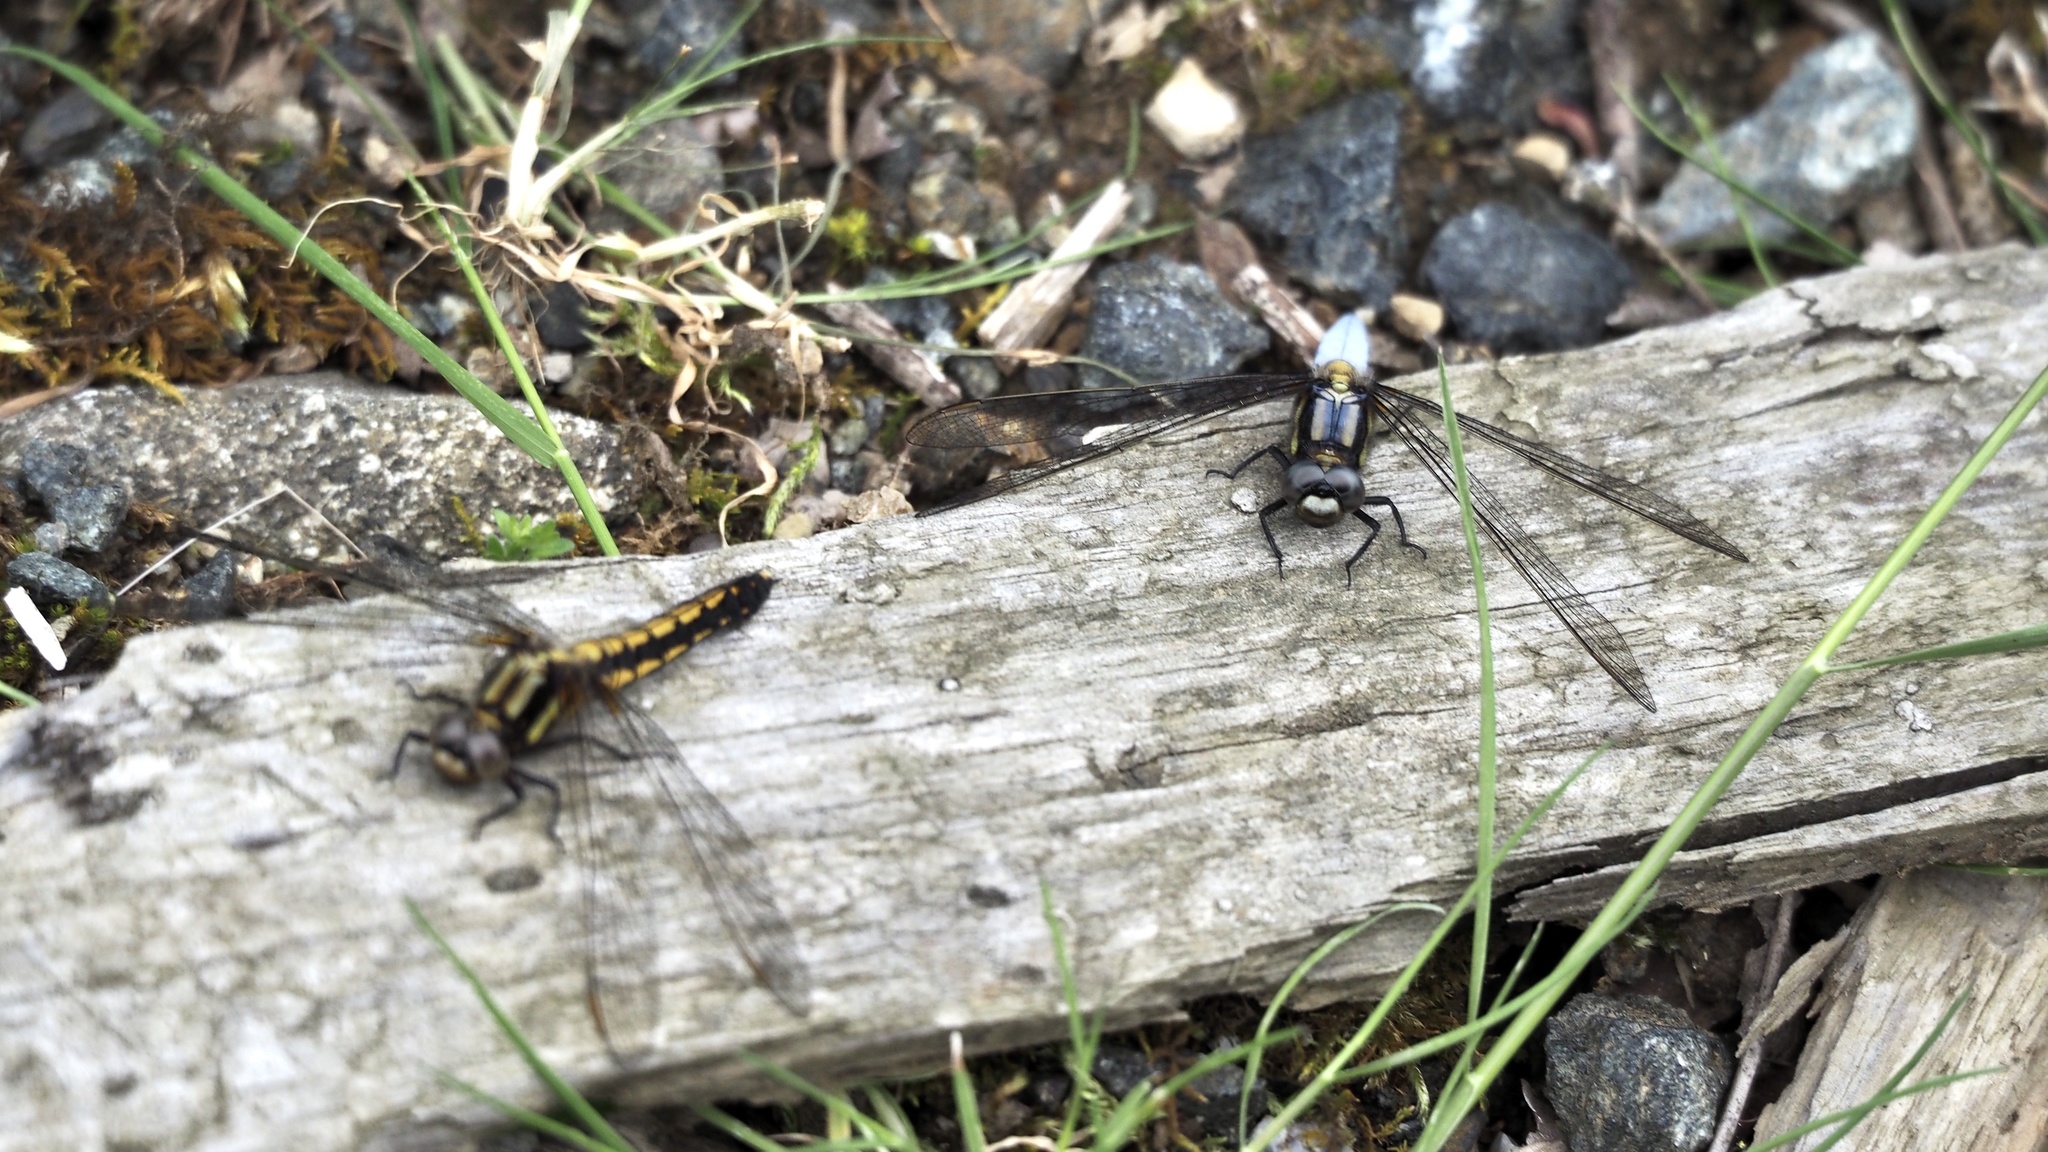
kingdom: Animalia
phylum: Arthropoda
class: Insecta
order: Odonata
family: Libellulidae
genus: Orthetrum
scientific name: Orthetrum japonicum
